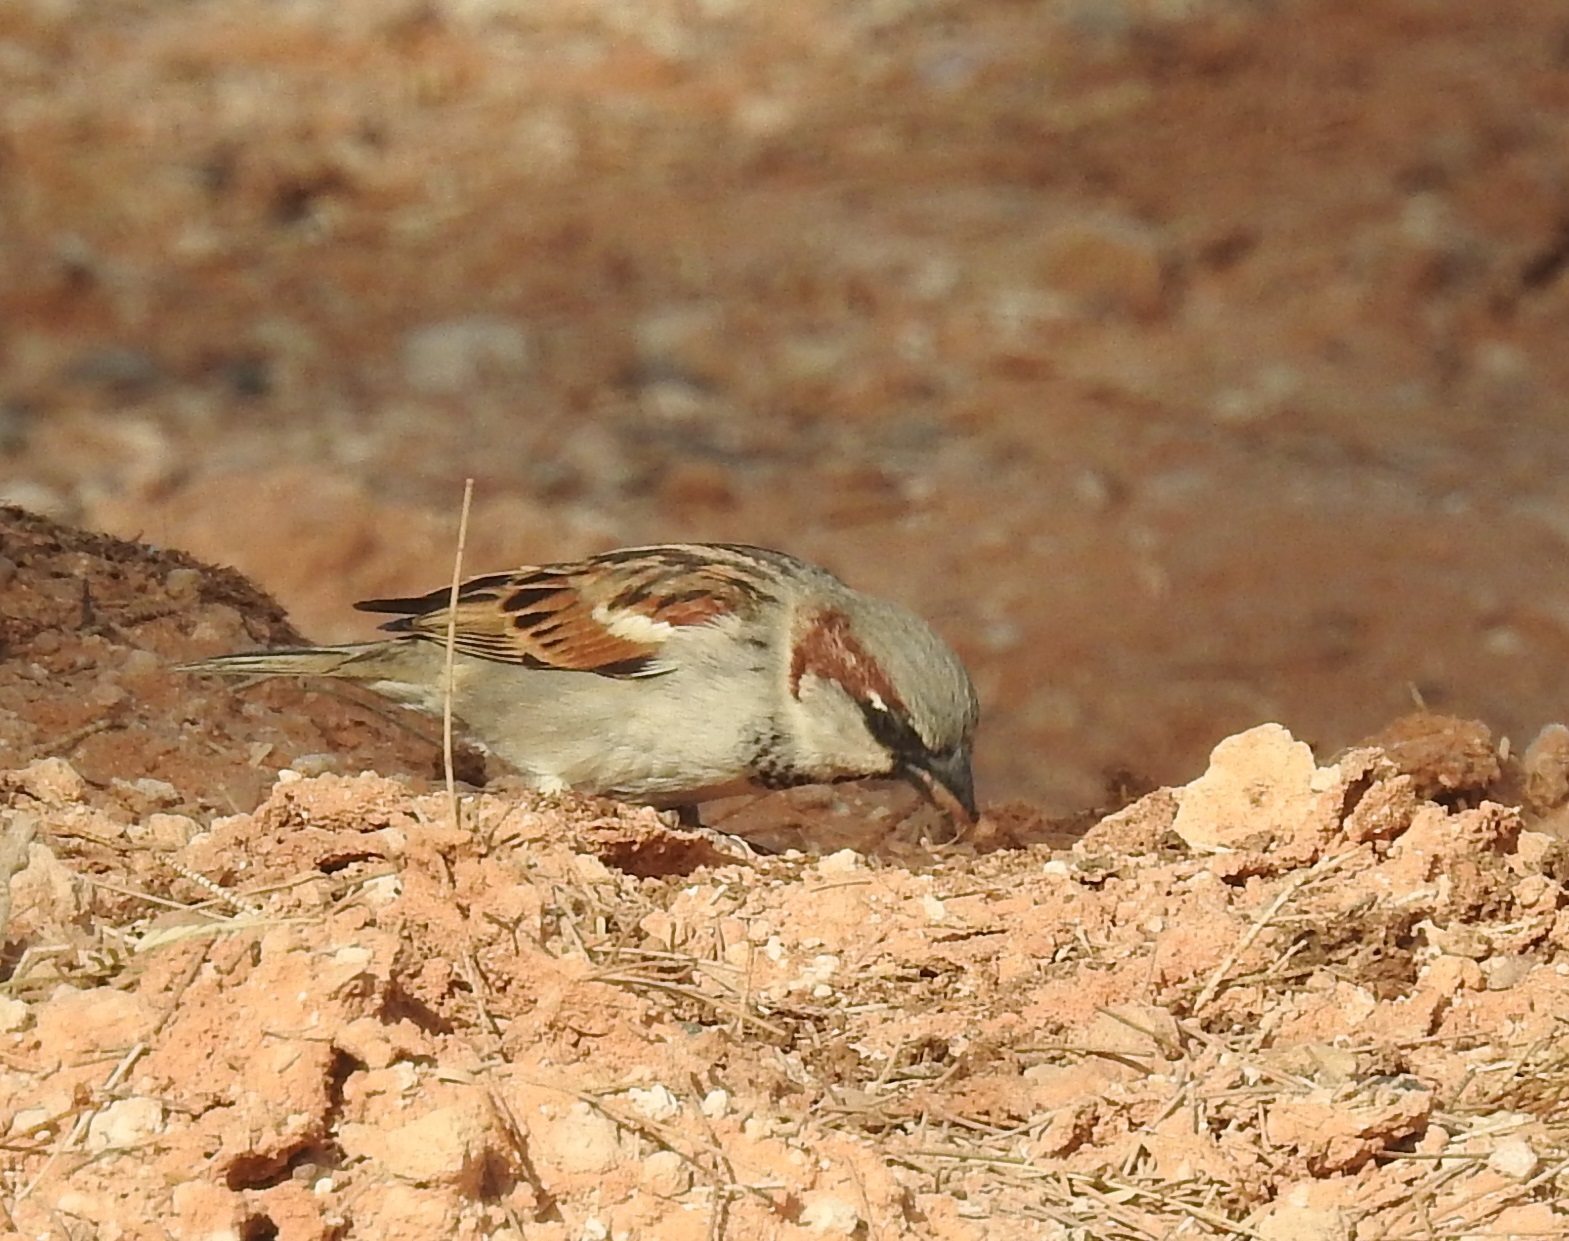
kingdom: Animalia
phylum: Chordata
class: Aves
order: Passeriformes
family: Passeridae
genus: Passer
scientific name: Passer domesticus
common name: House sparrow
